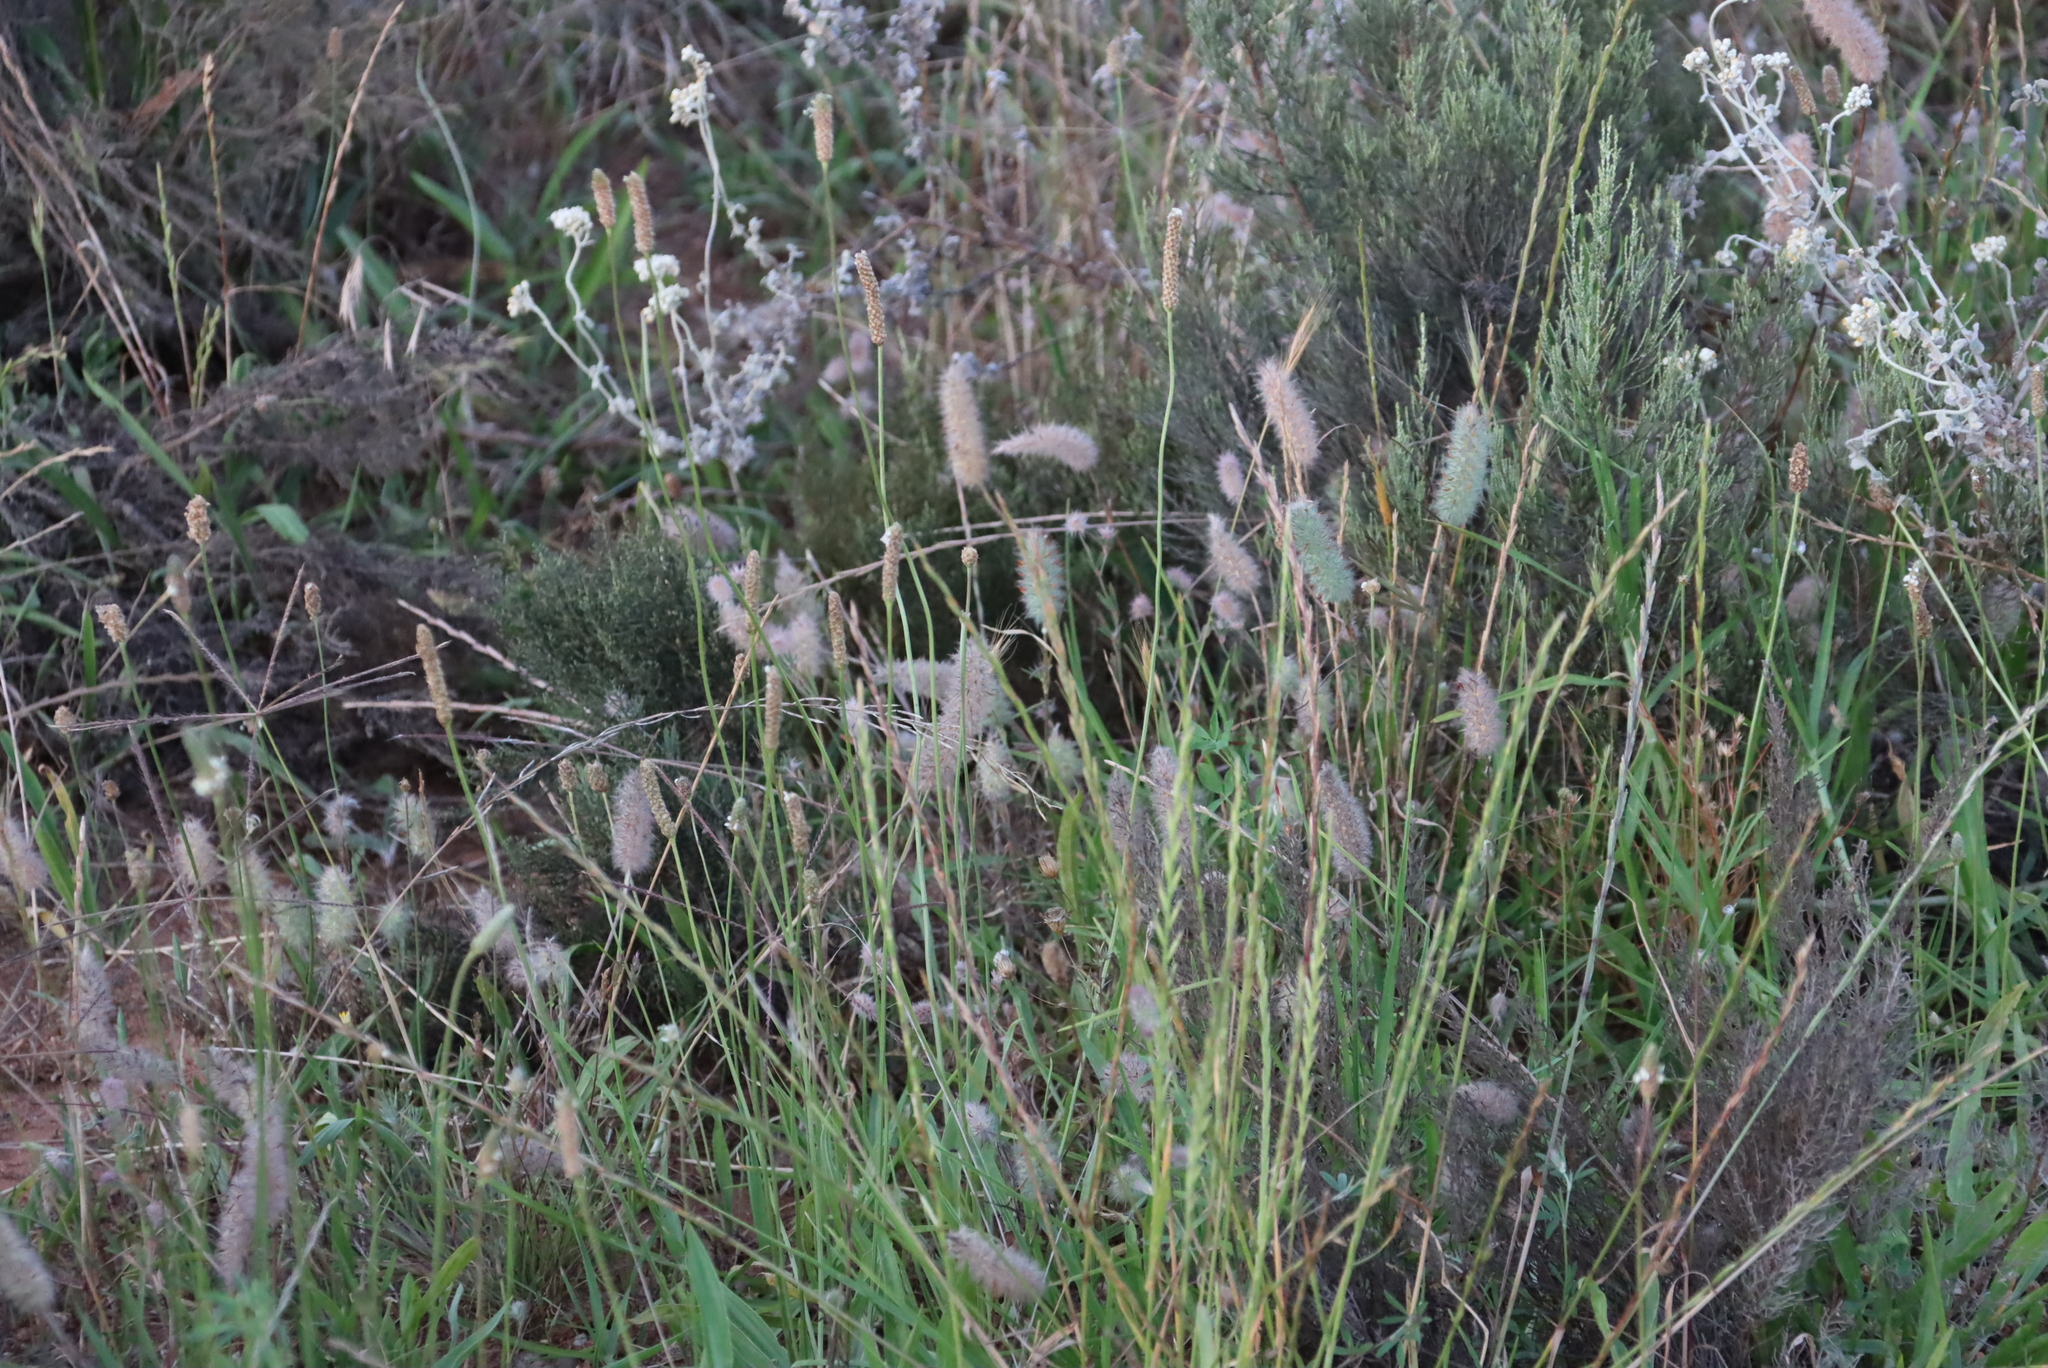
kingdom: Plantae
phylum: Tracheophyta
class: Magnoliopsida
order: Lamiales
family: Plantaginaceae
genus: Plantago
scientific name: Plantago lanceolata
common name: Ribwort plantain
